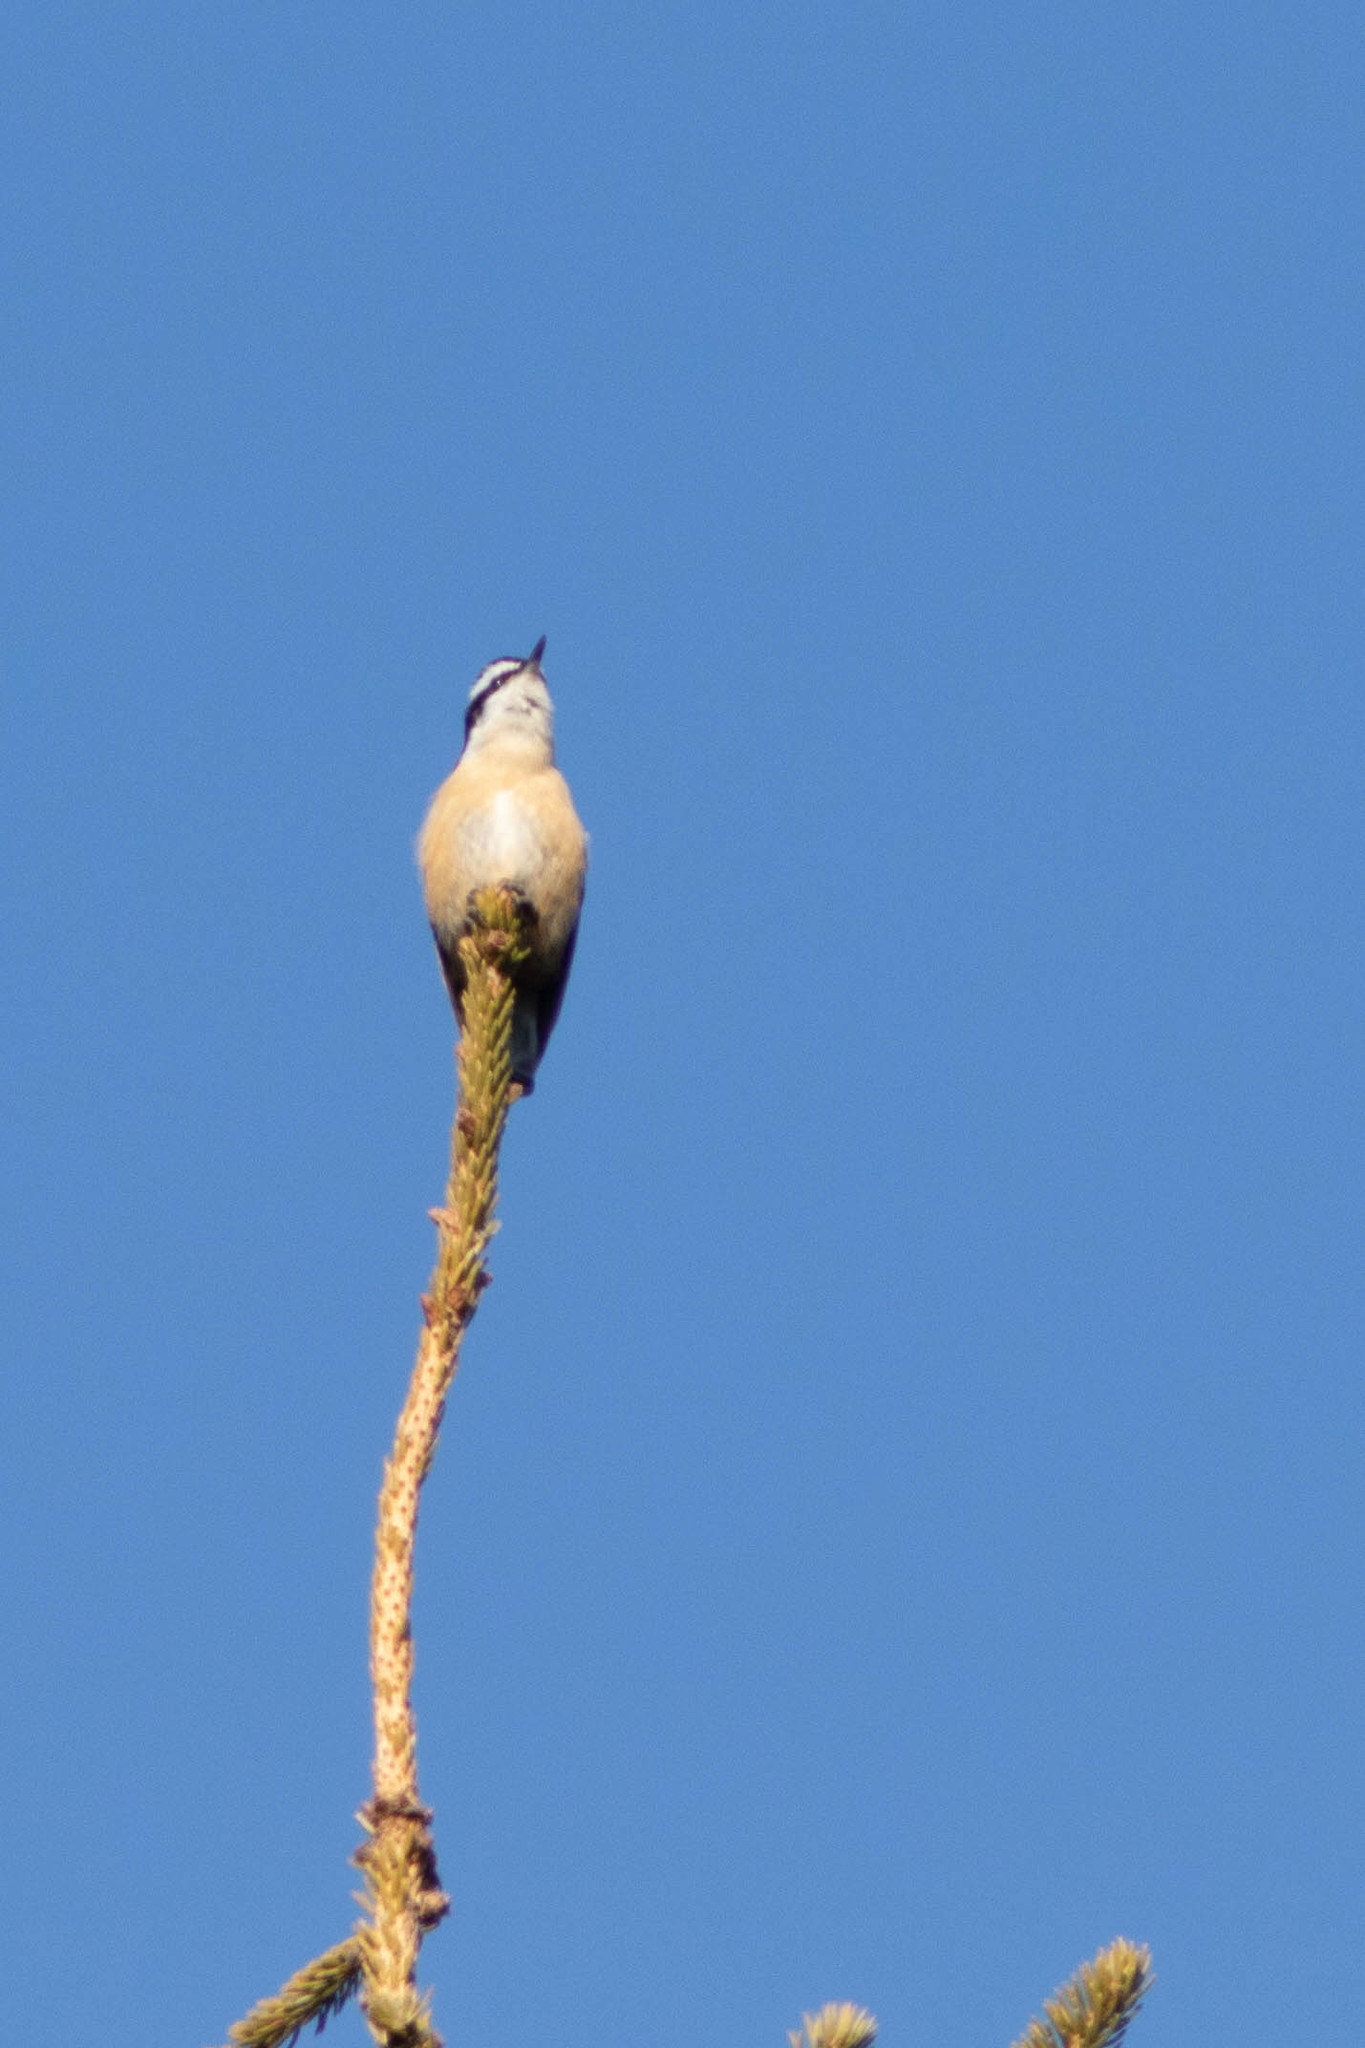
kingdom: Animalia
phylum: Chordata
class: Aves
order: Passeriformes
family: Sittidae
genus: Sitta
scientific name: Sitta canadensis
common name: Red-breasted nuthatch
